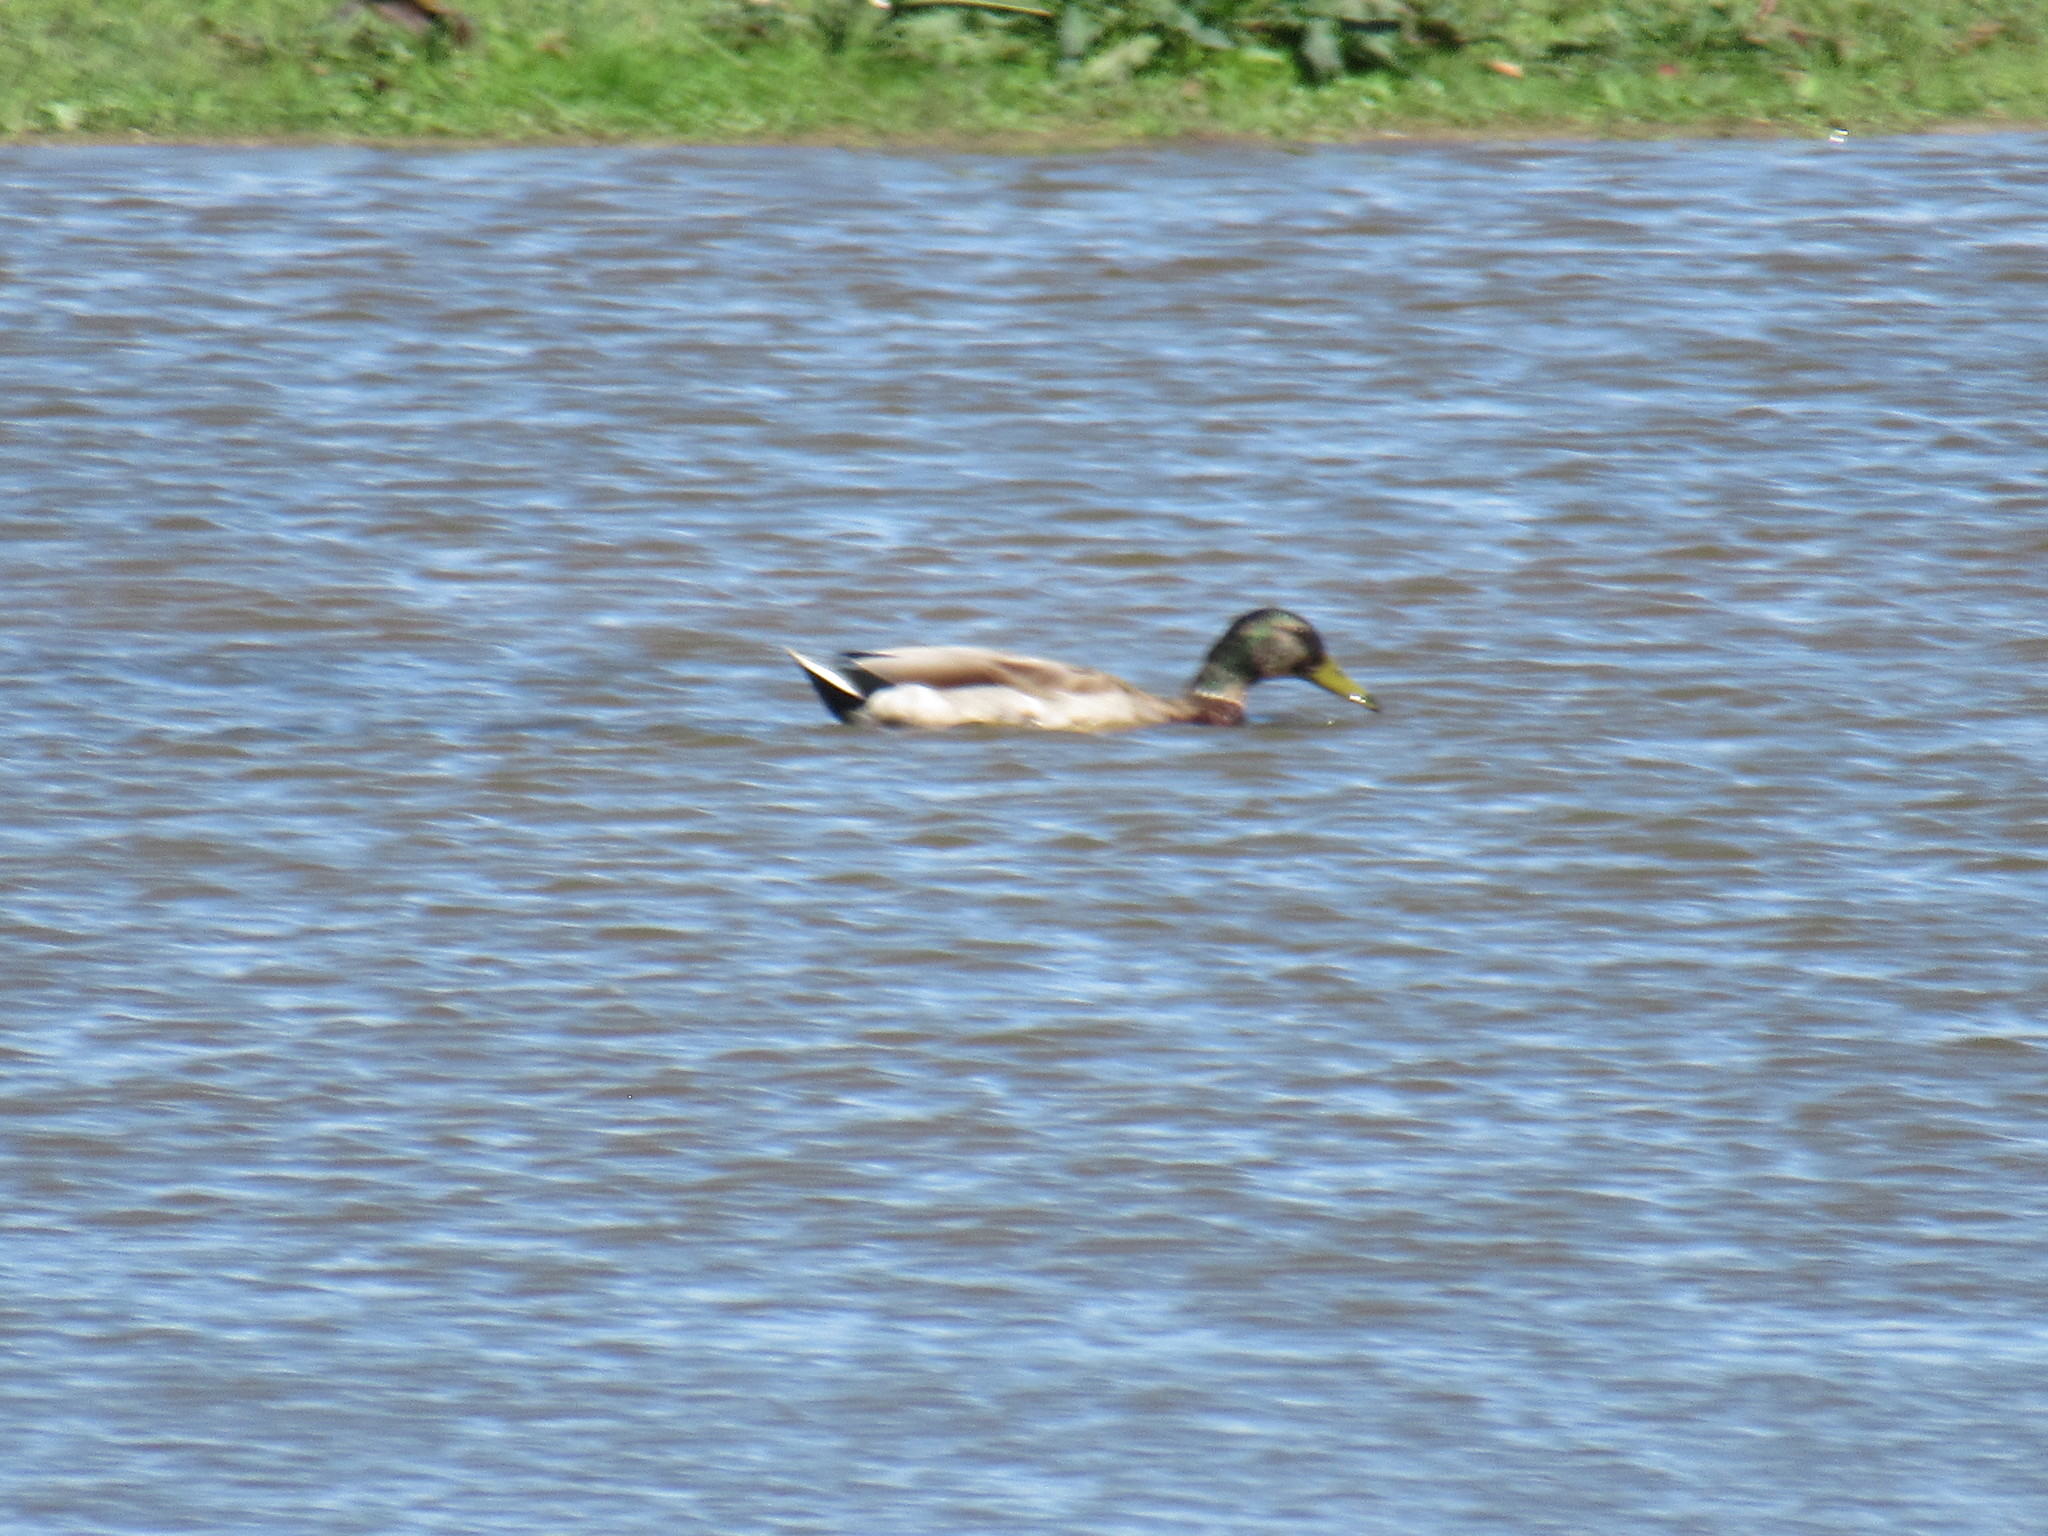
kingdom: Animalia
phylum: Chordata
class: Aves
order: Anseriformes
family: Anatidae
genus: Anas
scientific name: Anas platyrhynchos
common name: Mallard
